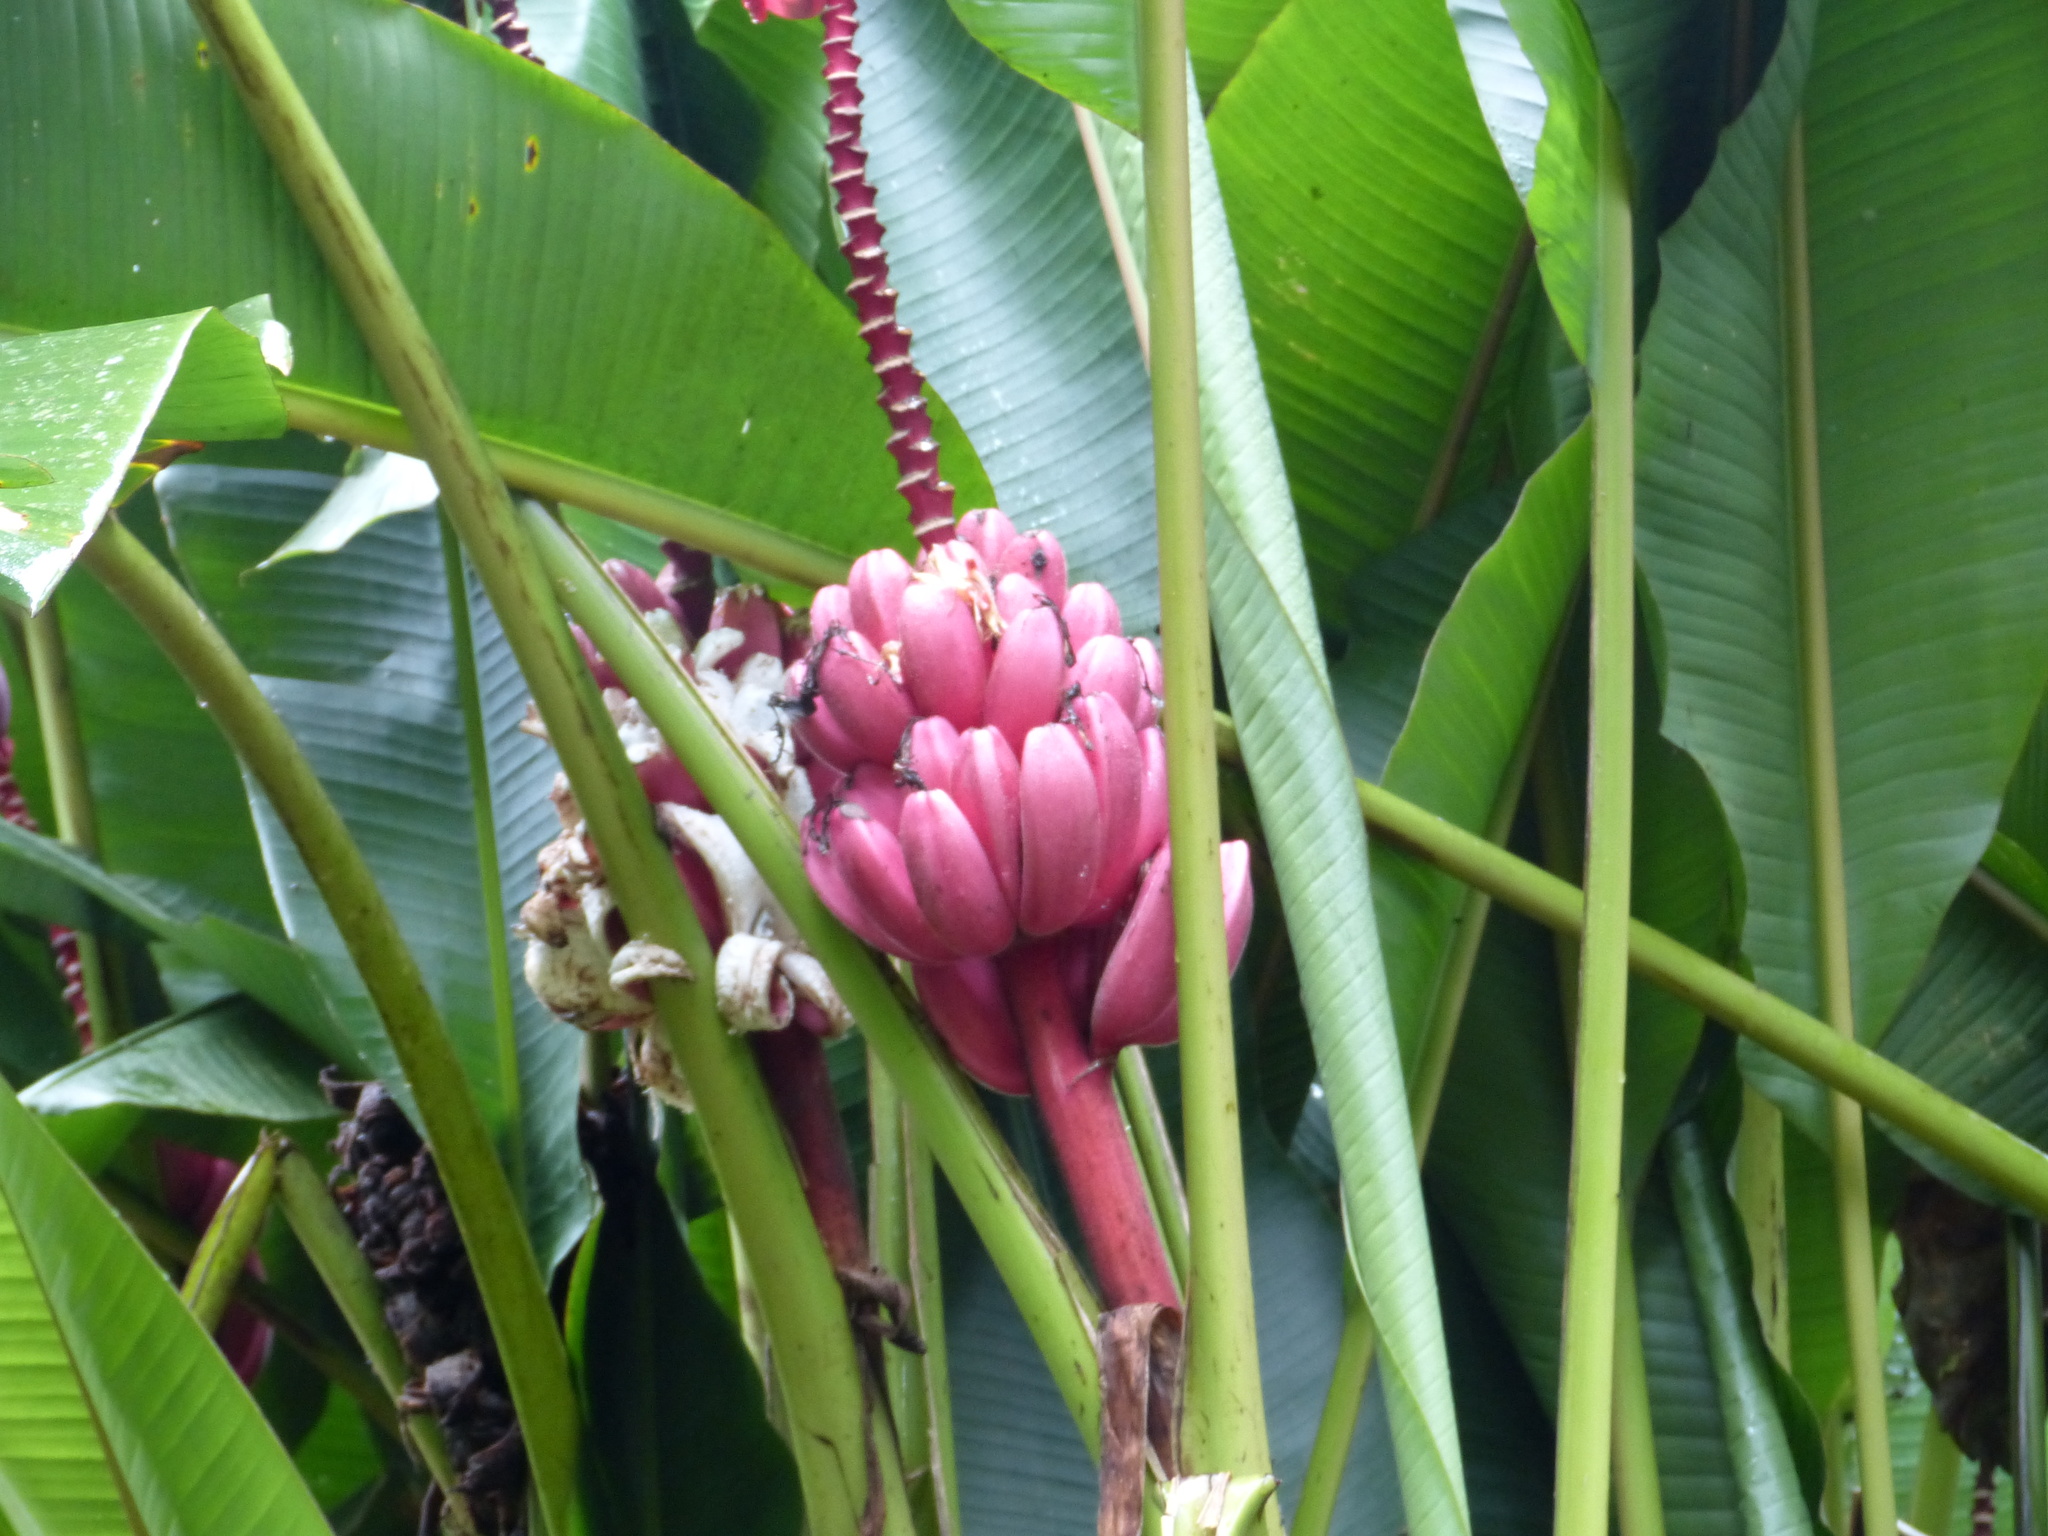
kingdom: Plantae
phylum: Tracheophyta
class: Liliopsida
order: Zingiberales
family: Musaceae
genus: Musa
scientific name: Musa velutina
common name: Pink velvet banana
